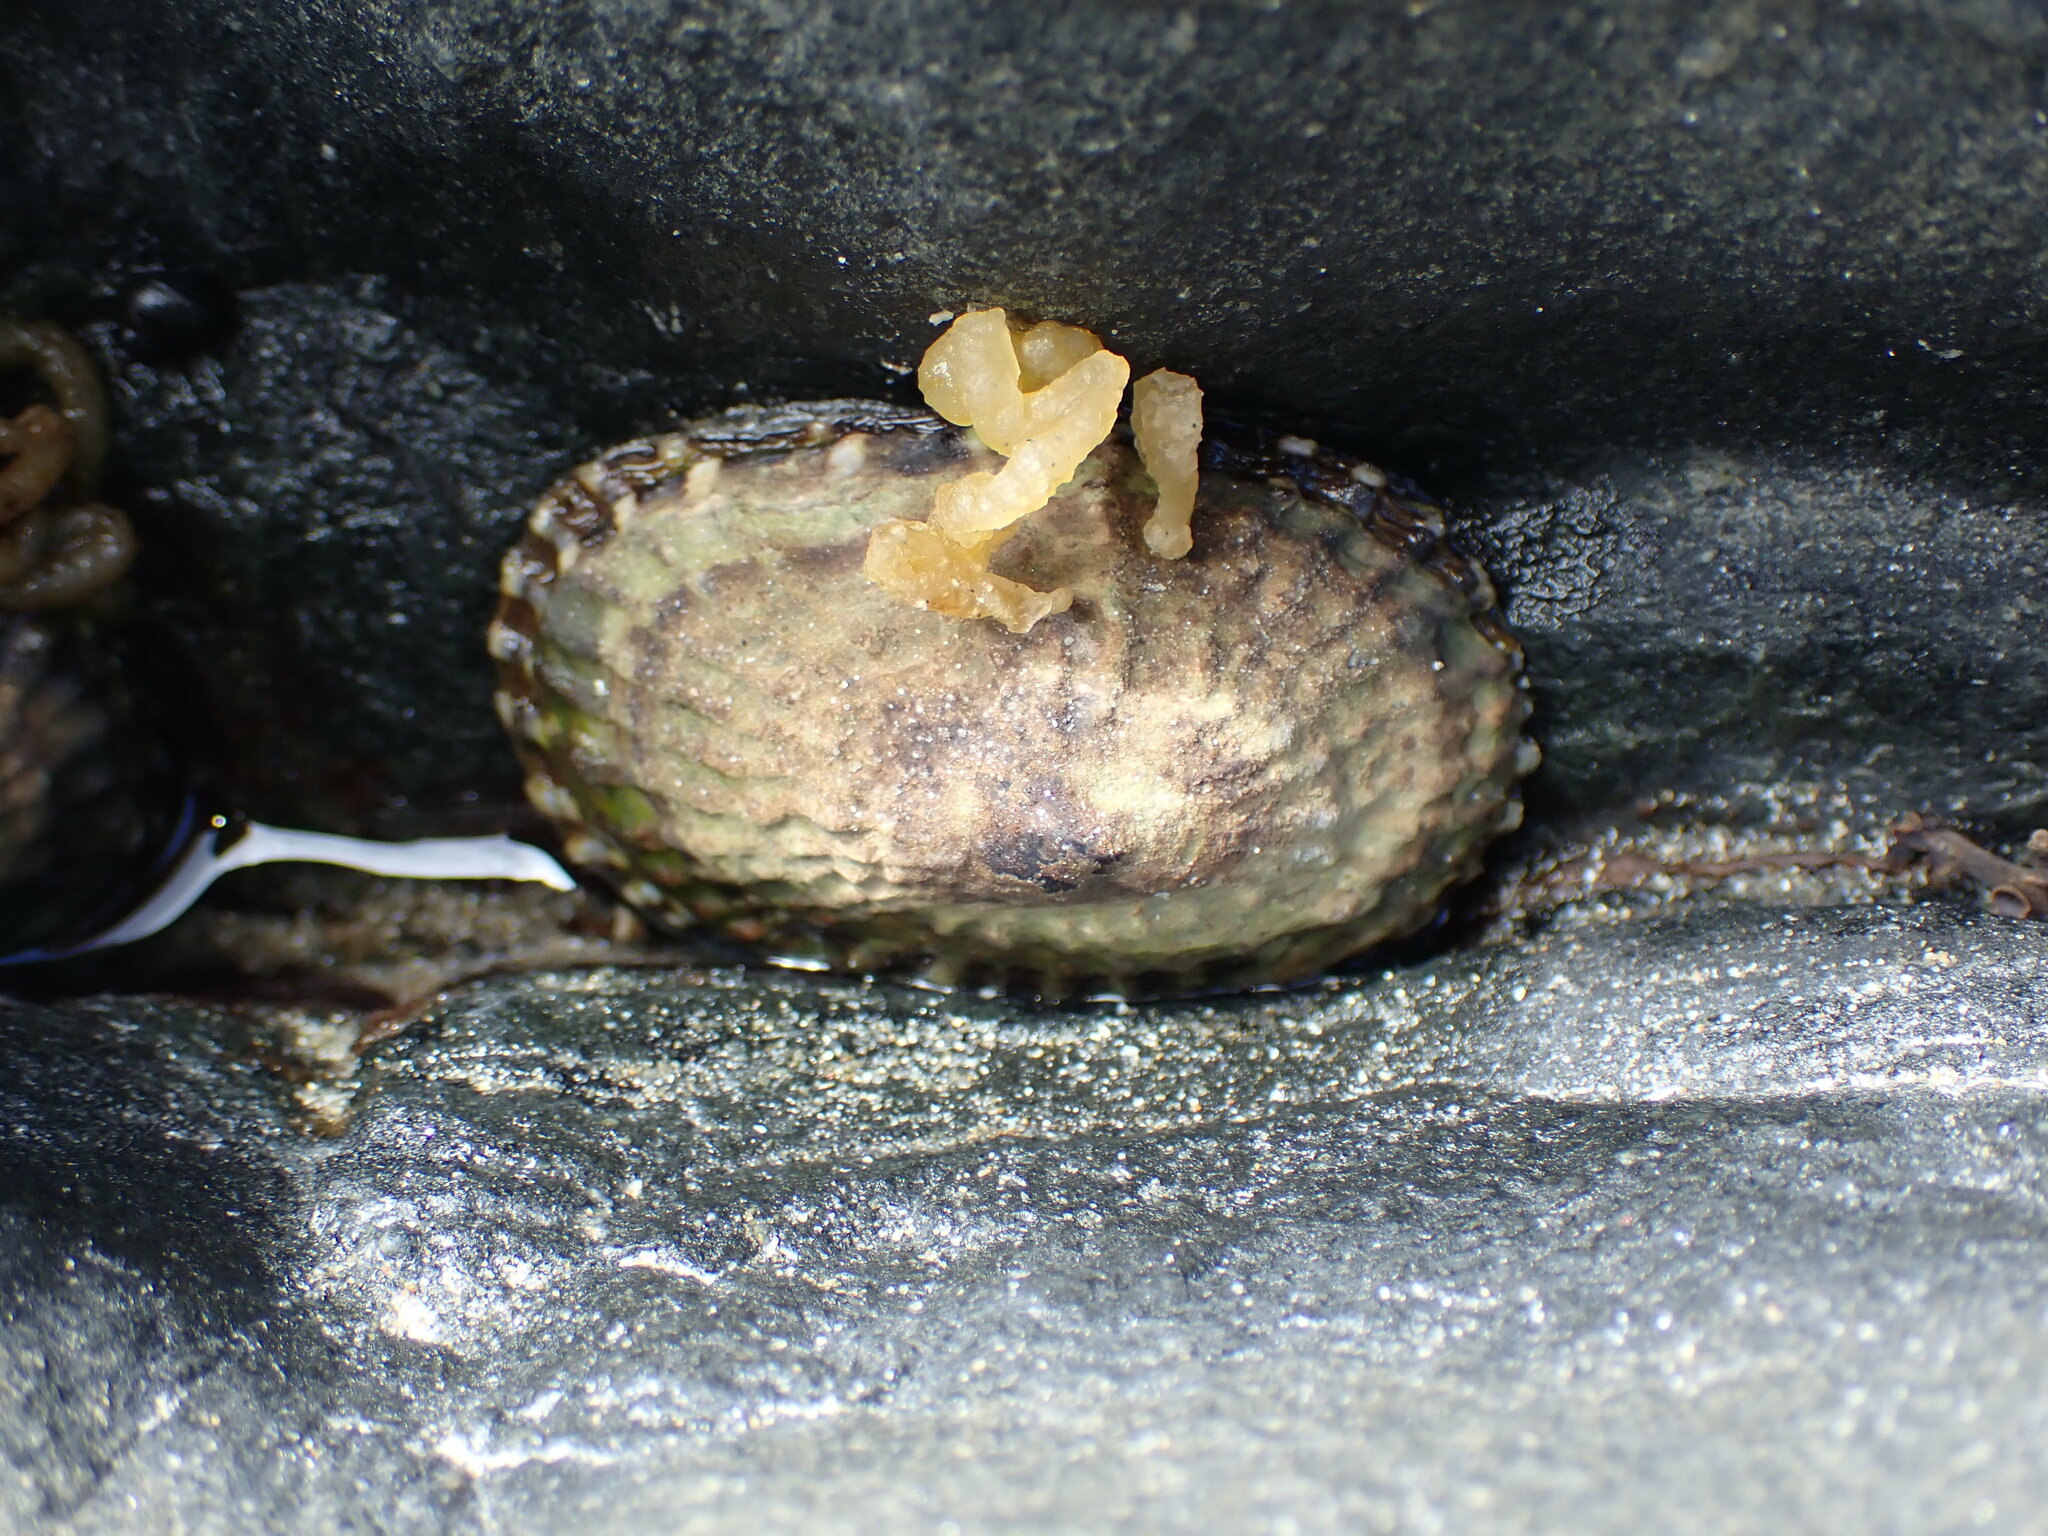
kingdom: Animalia
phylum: Mollusca
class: Gastropoda
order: Siphonariida
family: Siphonariidae
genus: Benhamina
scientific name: Benhamina obliquata
